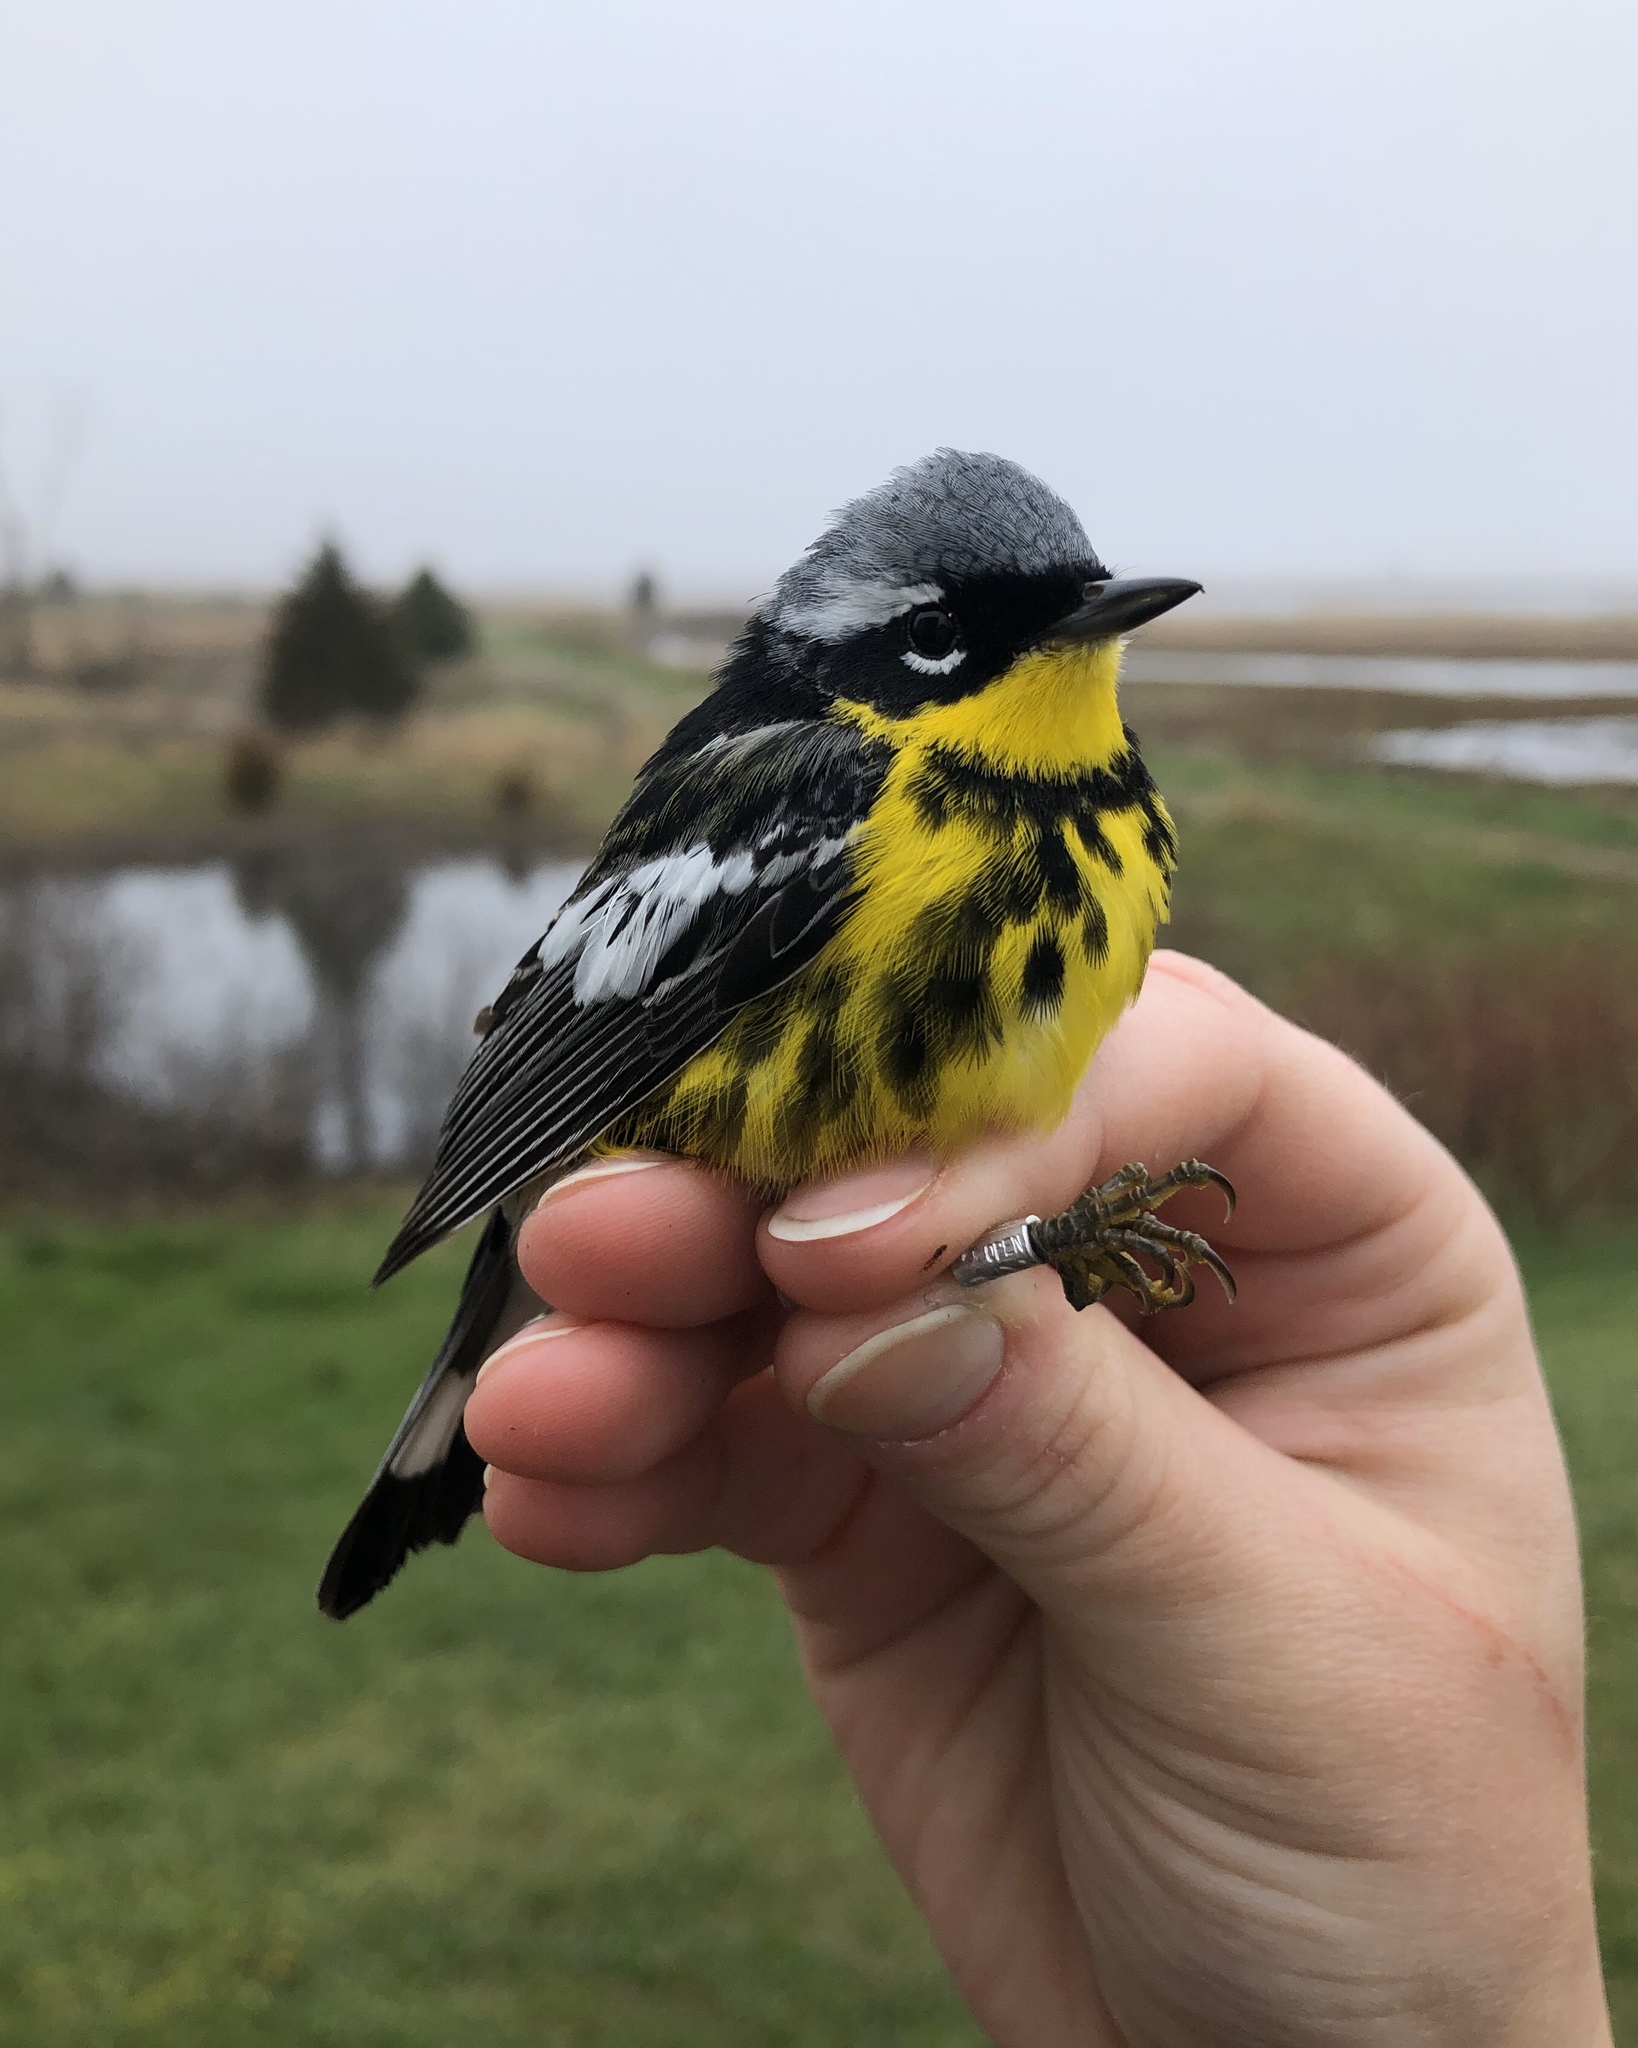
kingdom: Animalia
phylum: Chordata
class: Aves
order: Passeriformes
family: Parulidae
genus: Setophaga
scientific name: Setophaga magnolia
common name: Magnolia warbler
